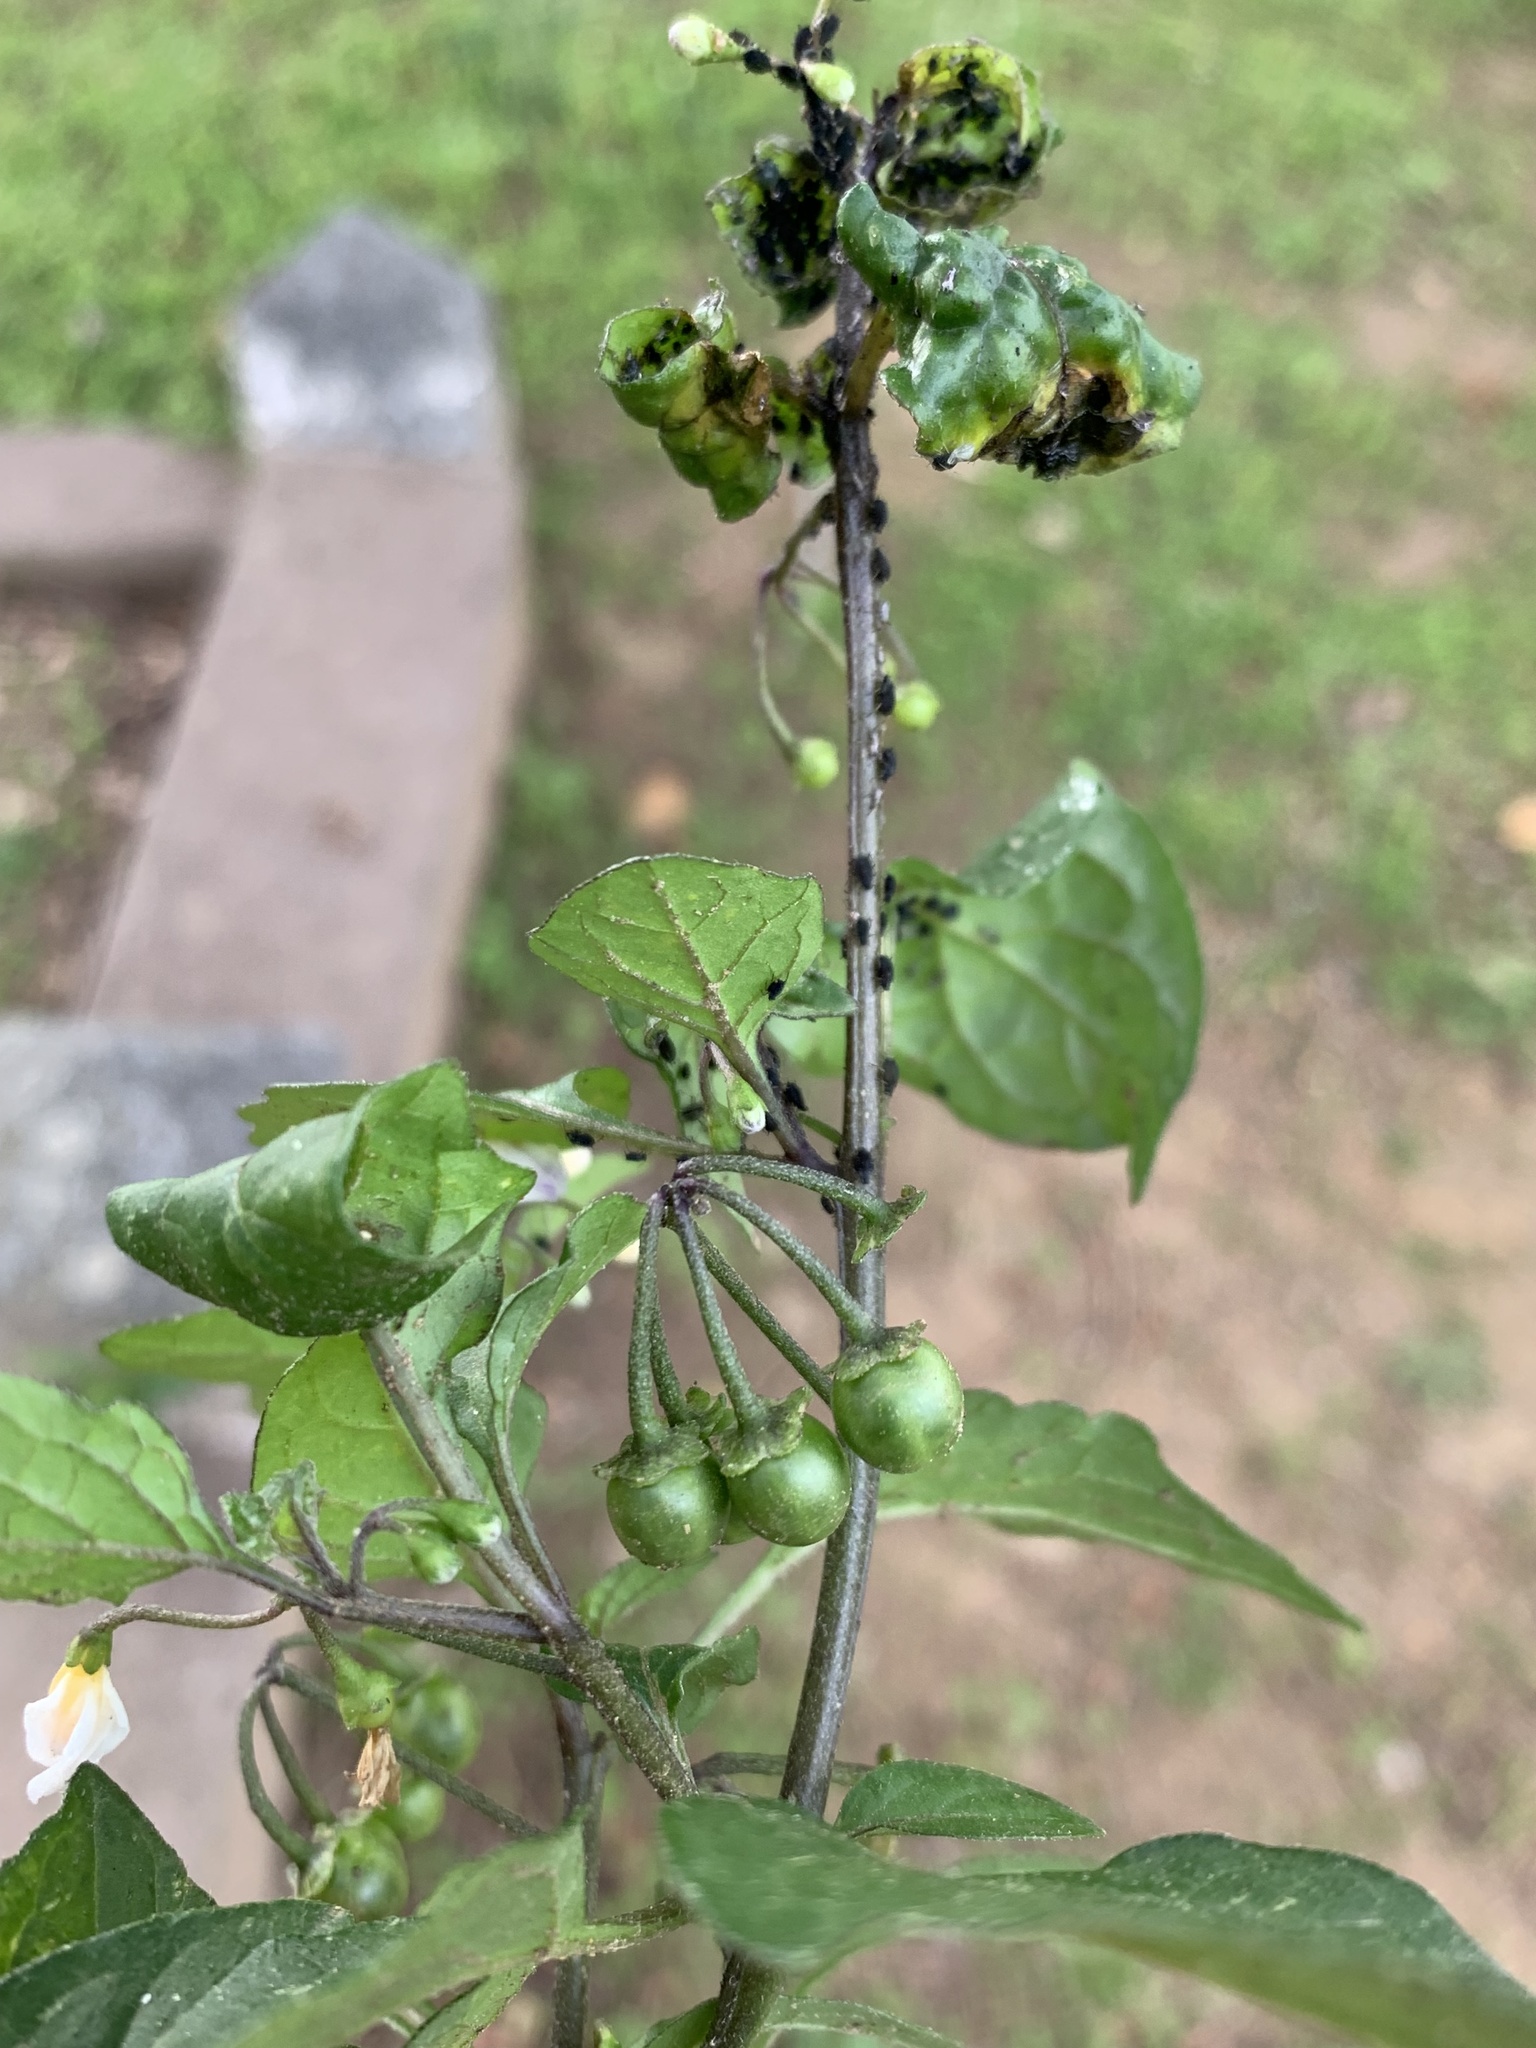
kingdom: Plantae
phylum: Tracheophyta
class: Magnoliopsida
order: Solanales
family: Solanaceae
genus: Solanum
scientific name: Solanum nigrum
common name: Black nightshade
